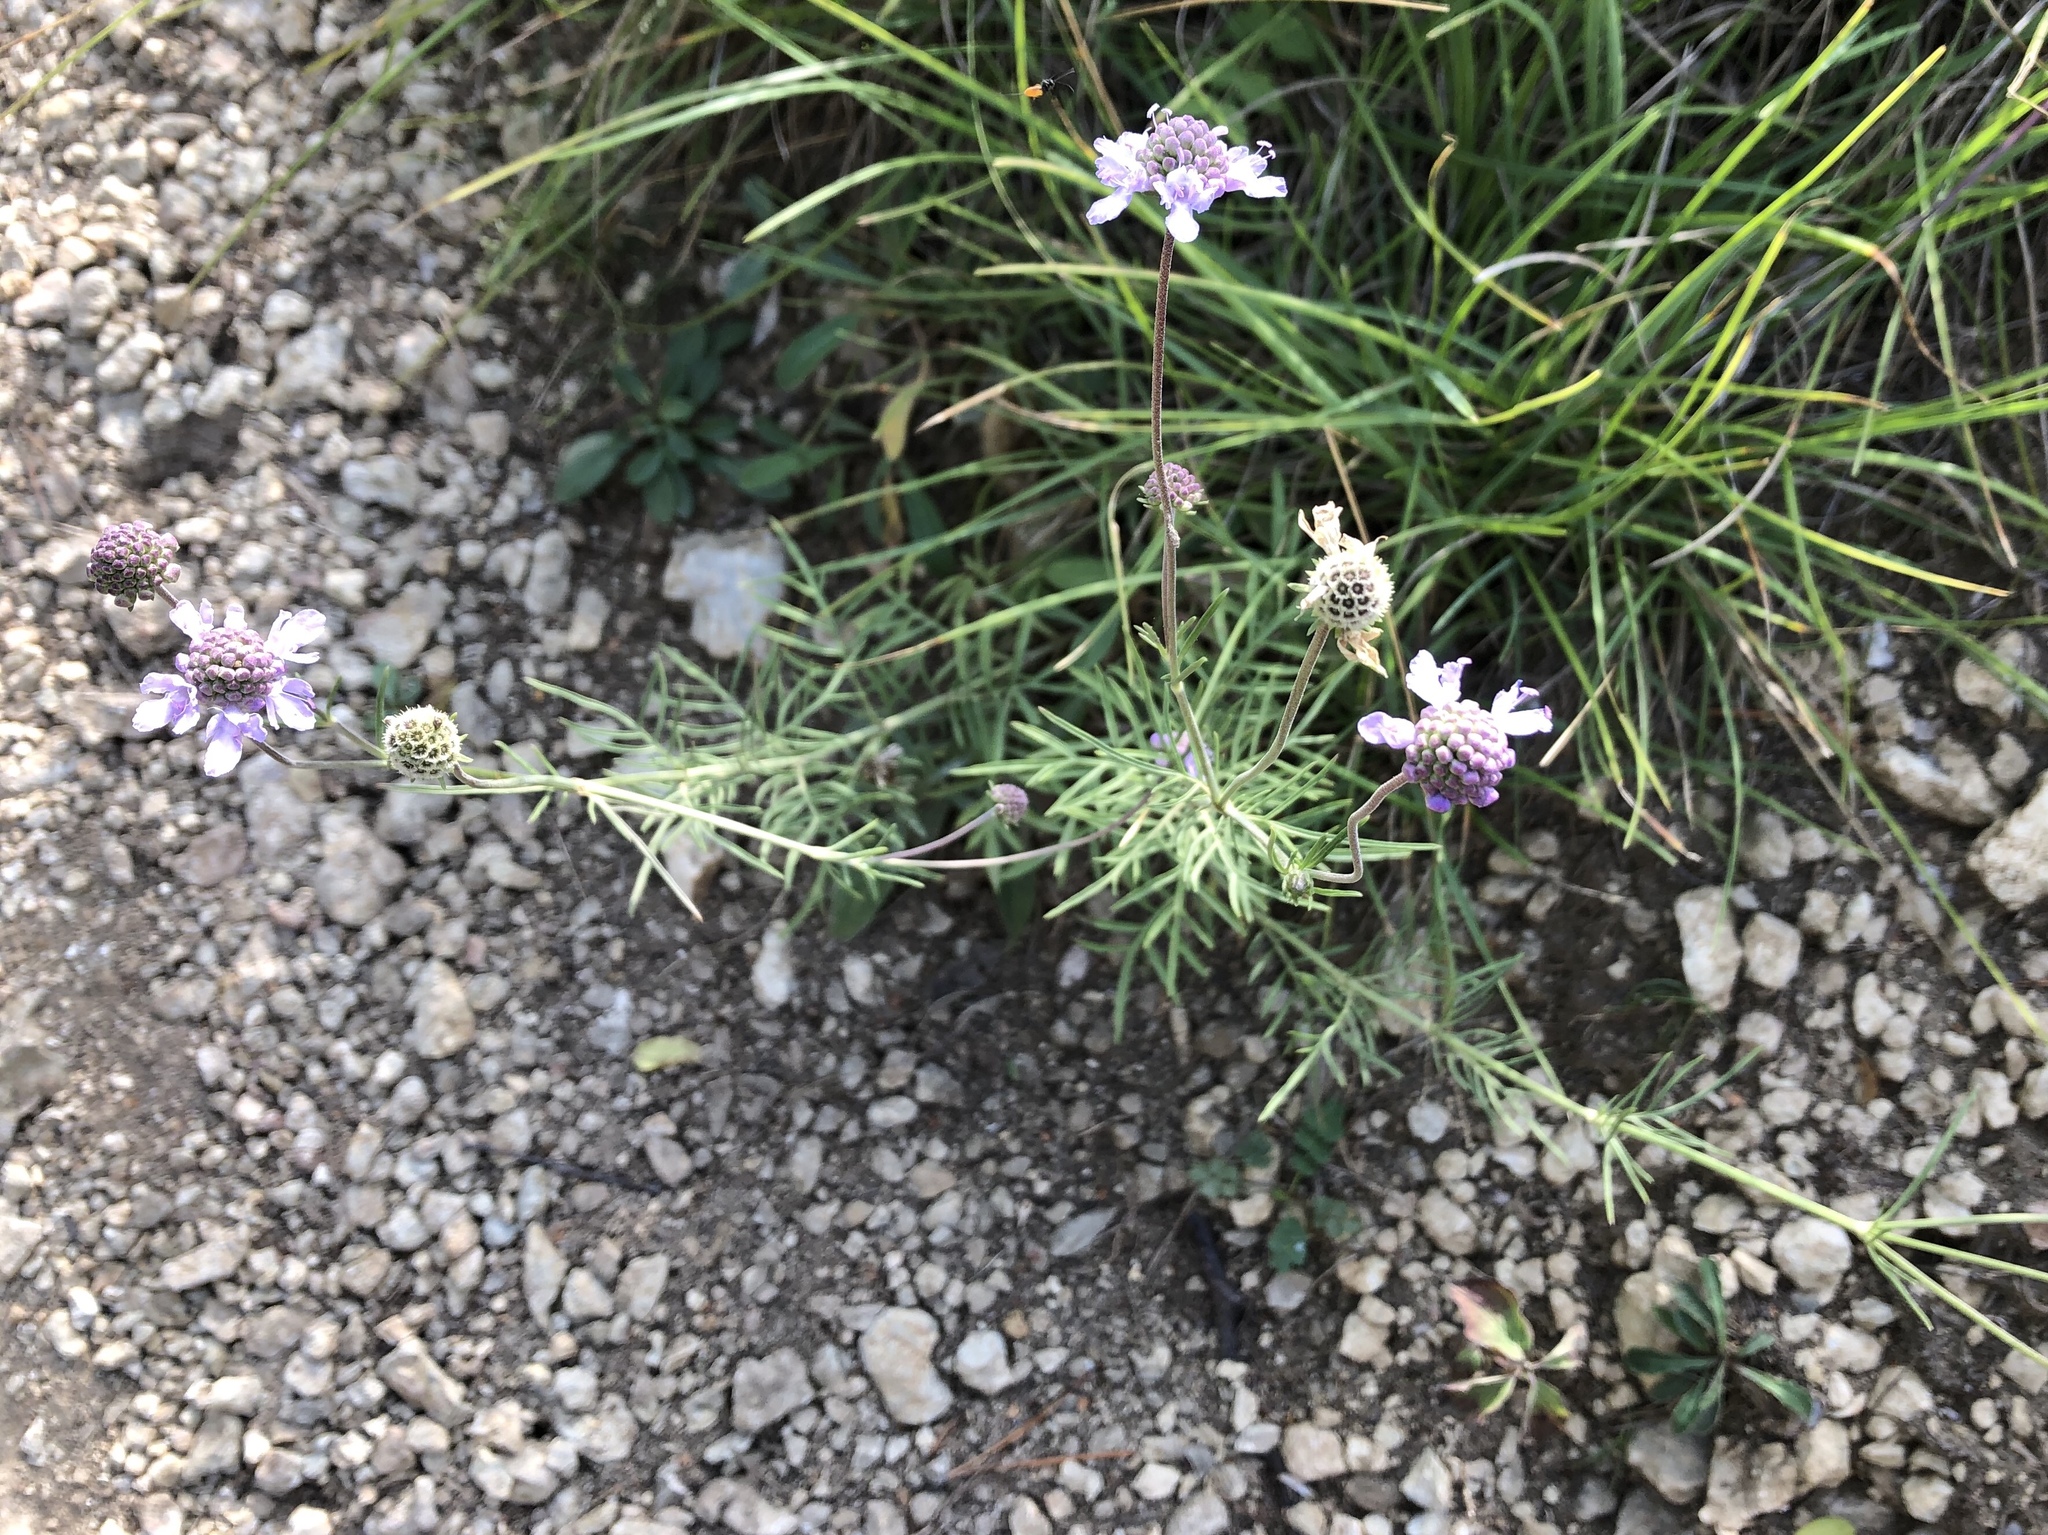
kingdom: Plantae
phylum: Tracheophyta
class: Magnoliopsida
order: Dipsacales
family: Caprifoliaceae
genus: Scabiosa
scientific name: Scabiosa canescens
